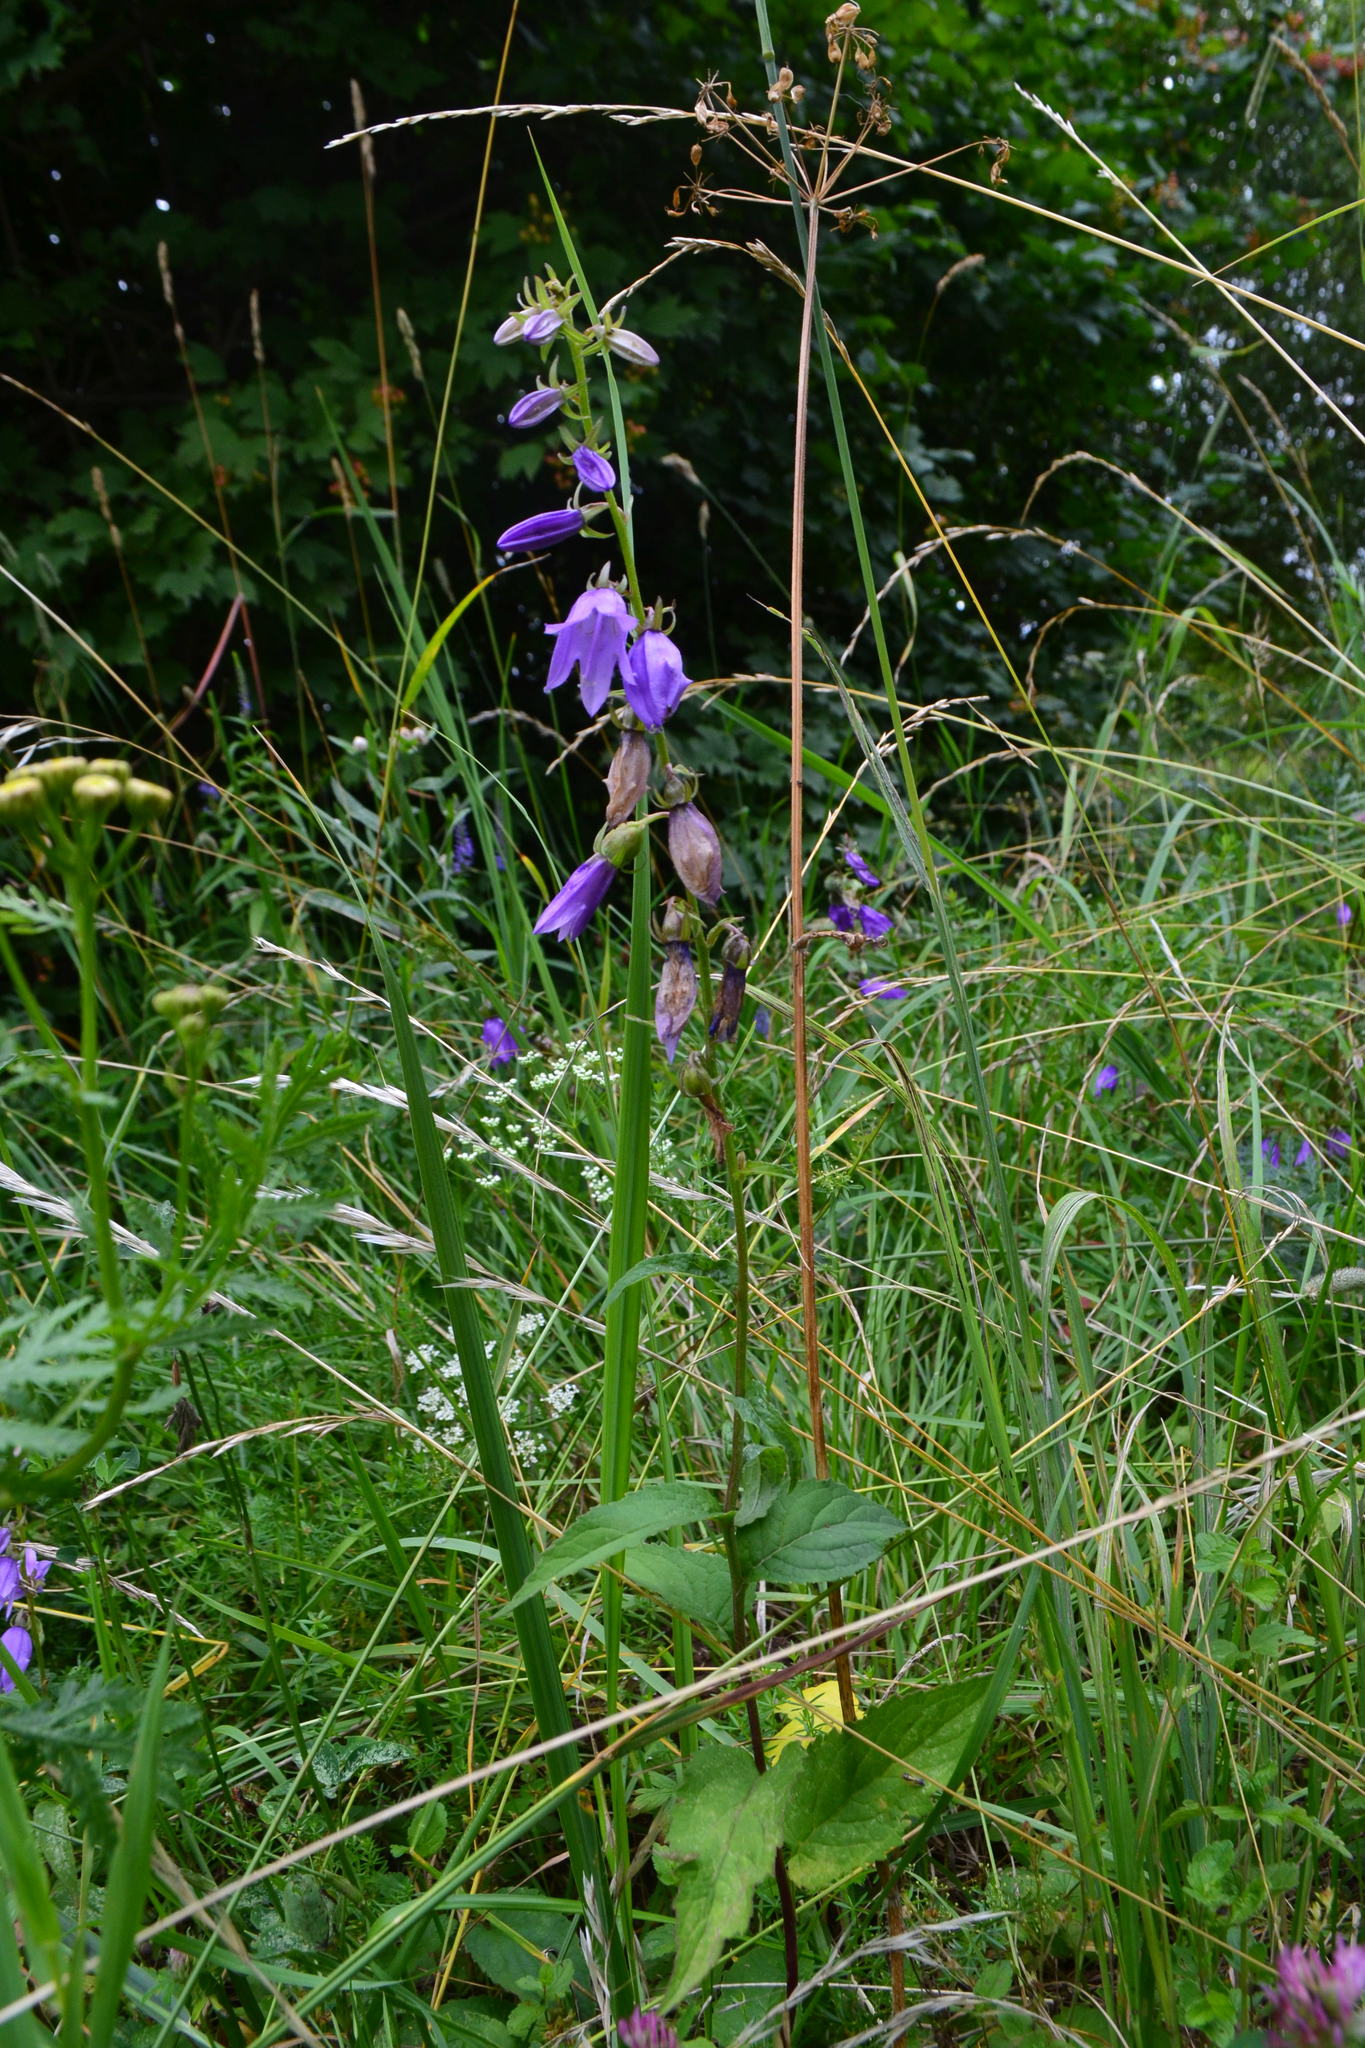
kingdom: Plantae
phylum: Tracheophyta
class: Magnoliopsida
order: Asterales
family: Campanulaceae
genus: Campanula
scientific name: Campanula rapunculoides
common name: Creeping bellflower
